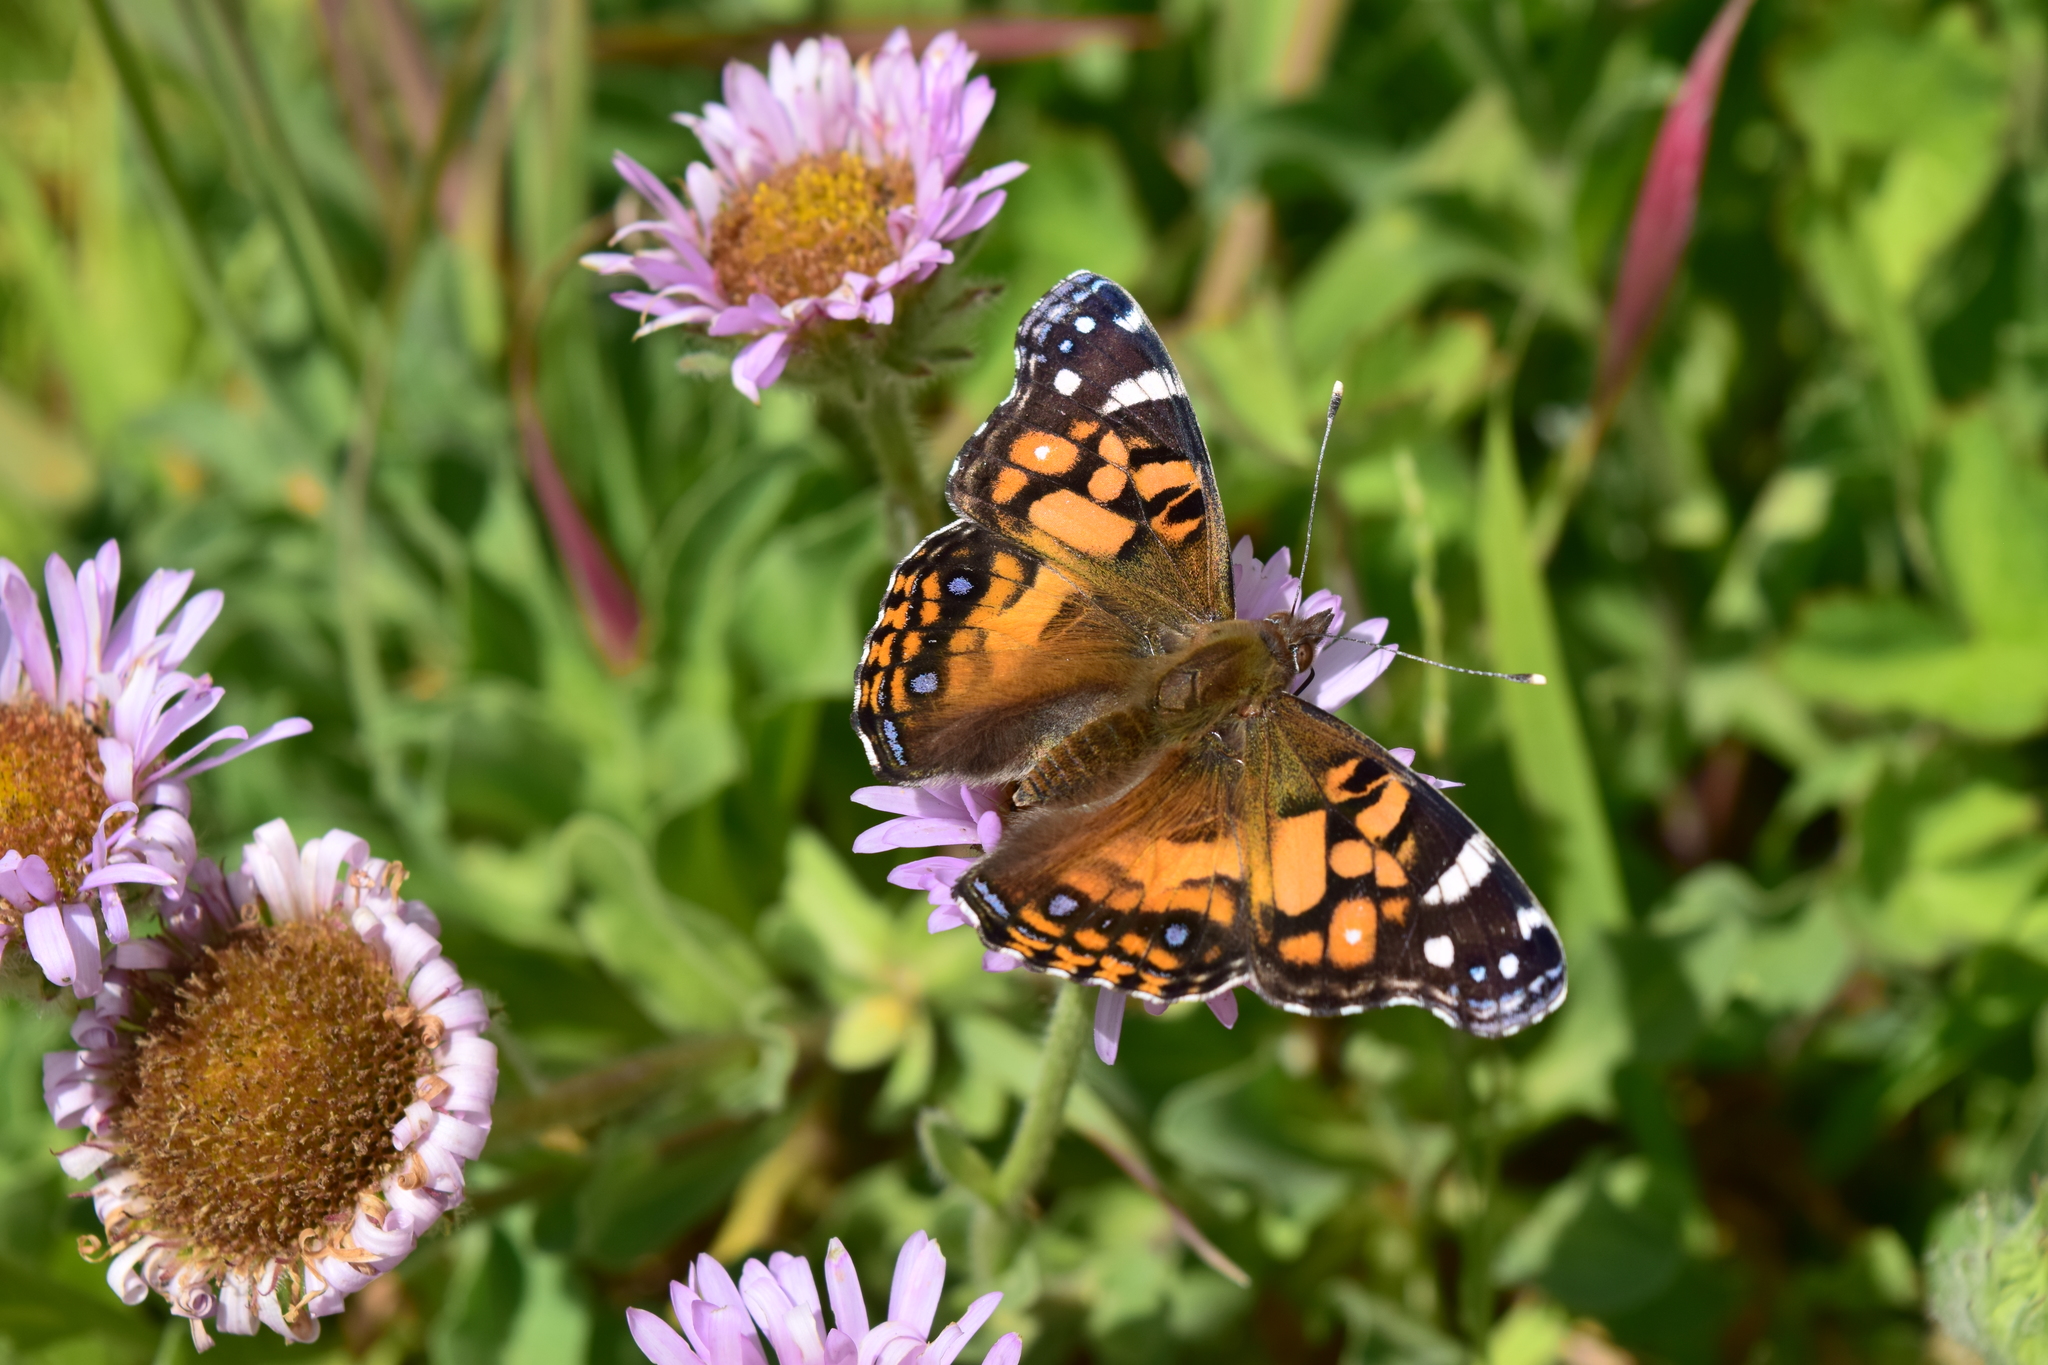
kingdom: Animalia
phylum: Arthropoda
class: Insecta
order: Lepidoptera
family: Nymphalidae
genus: Vanessa
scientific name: Vanessa virginiensis
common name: American lady
